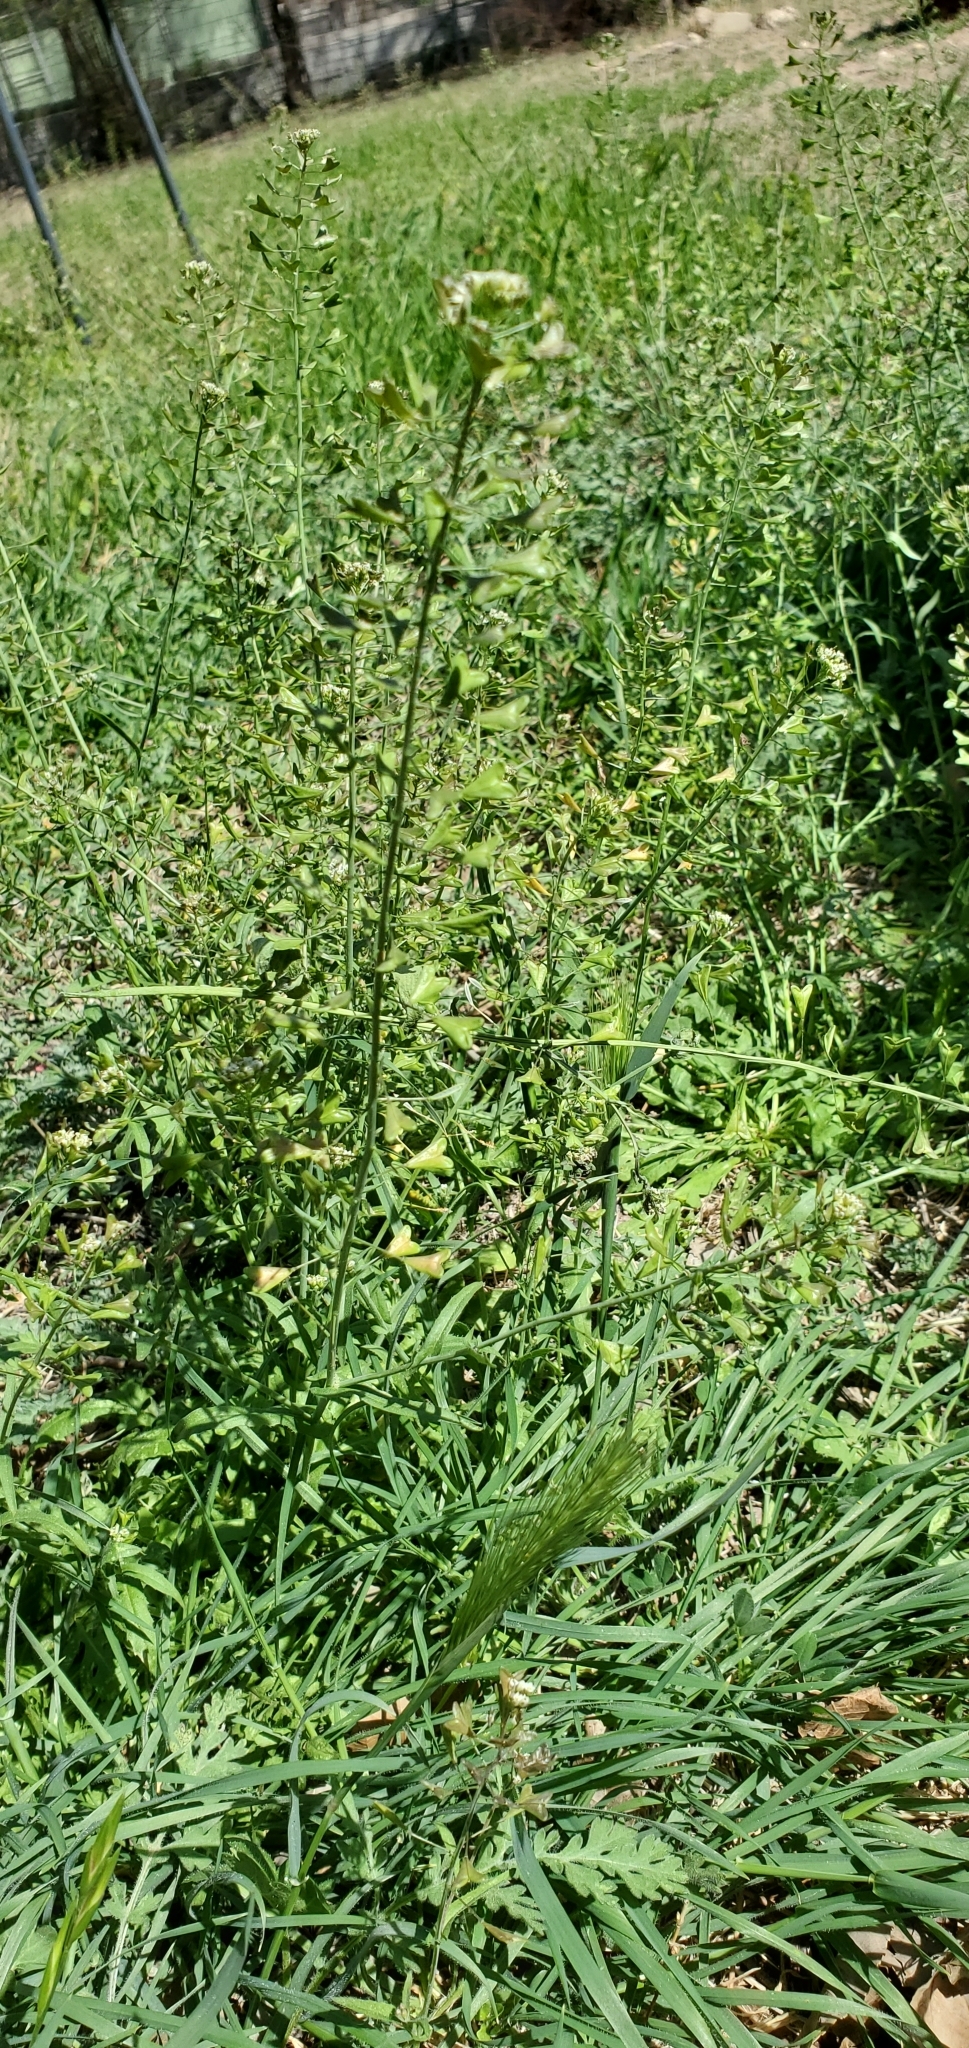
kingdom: Plantae
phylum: Tracheophyta
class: Magnoliopsida
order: Brassicales
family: Brassicaceae
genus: Capsella
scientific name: Capsella bursa-pastoris
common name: Shepherd's purse
